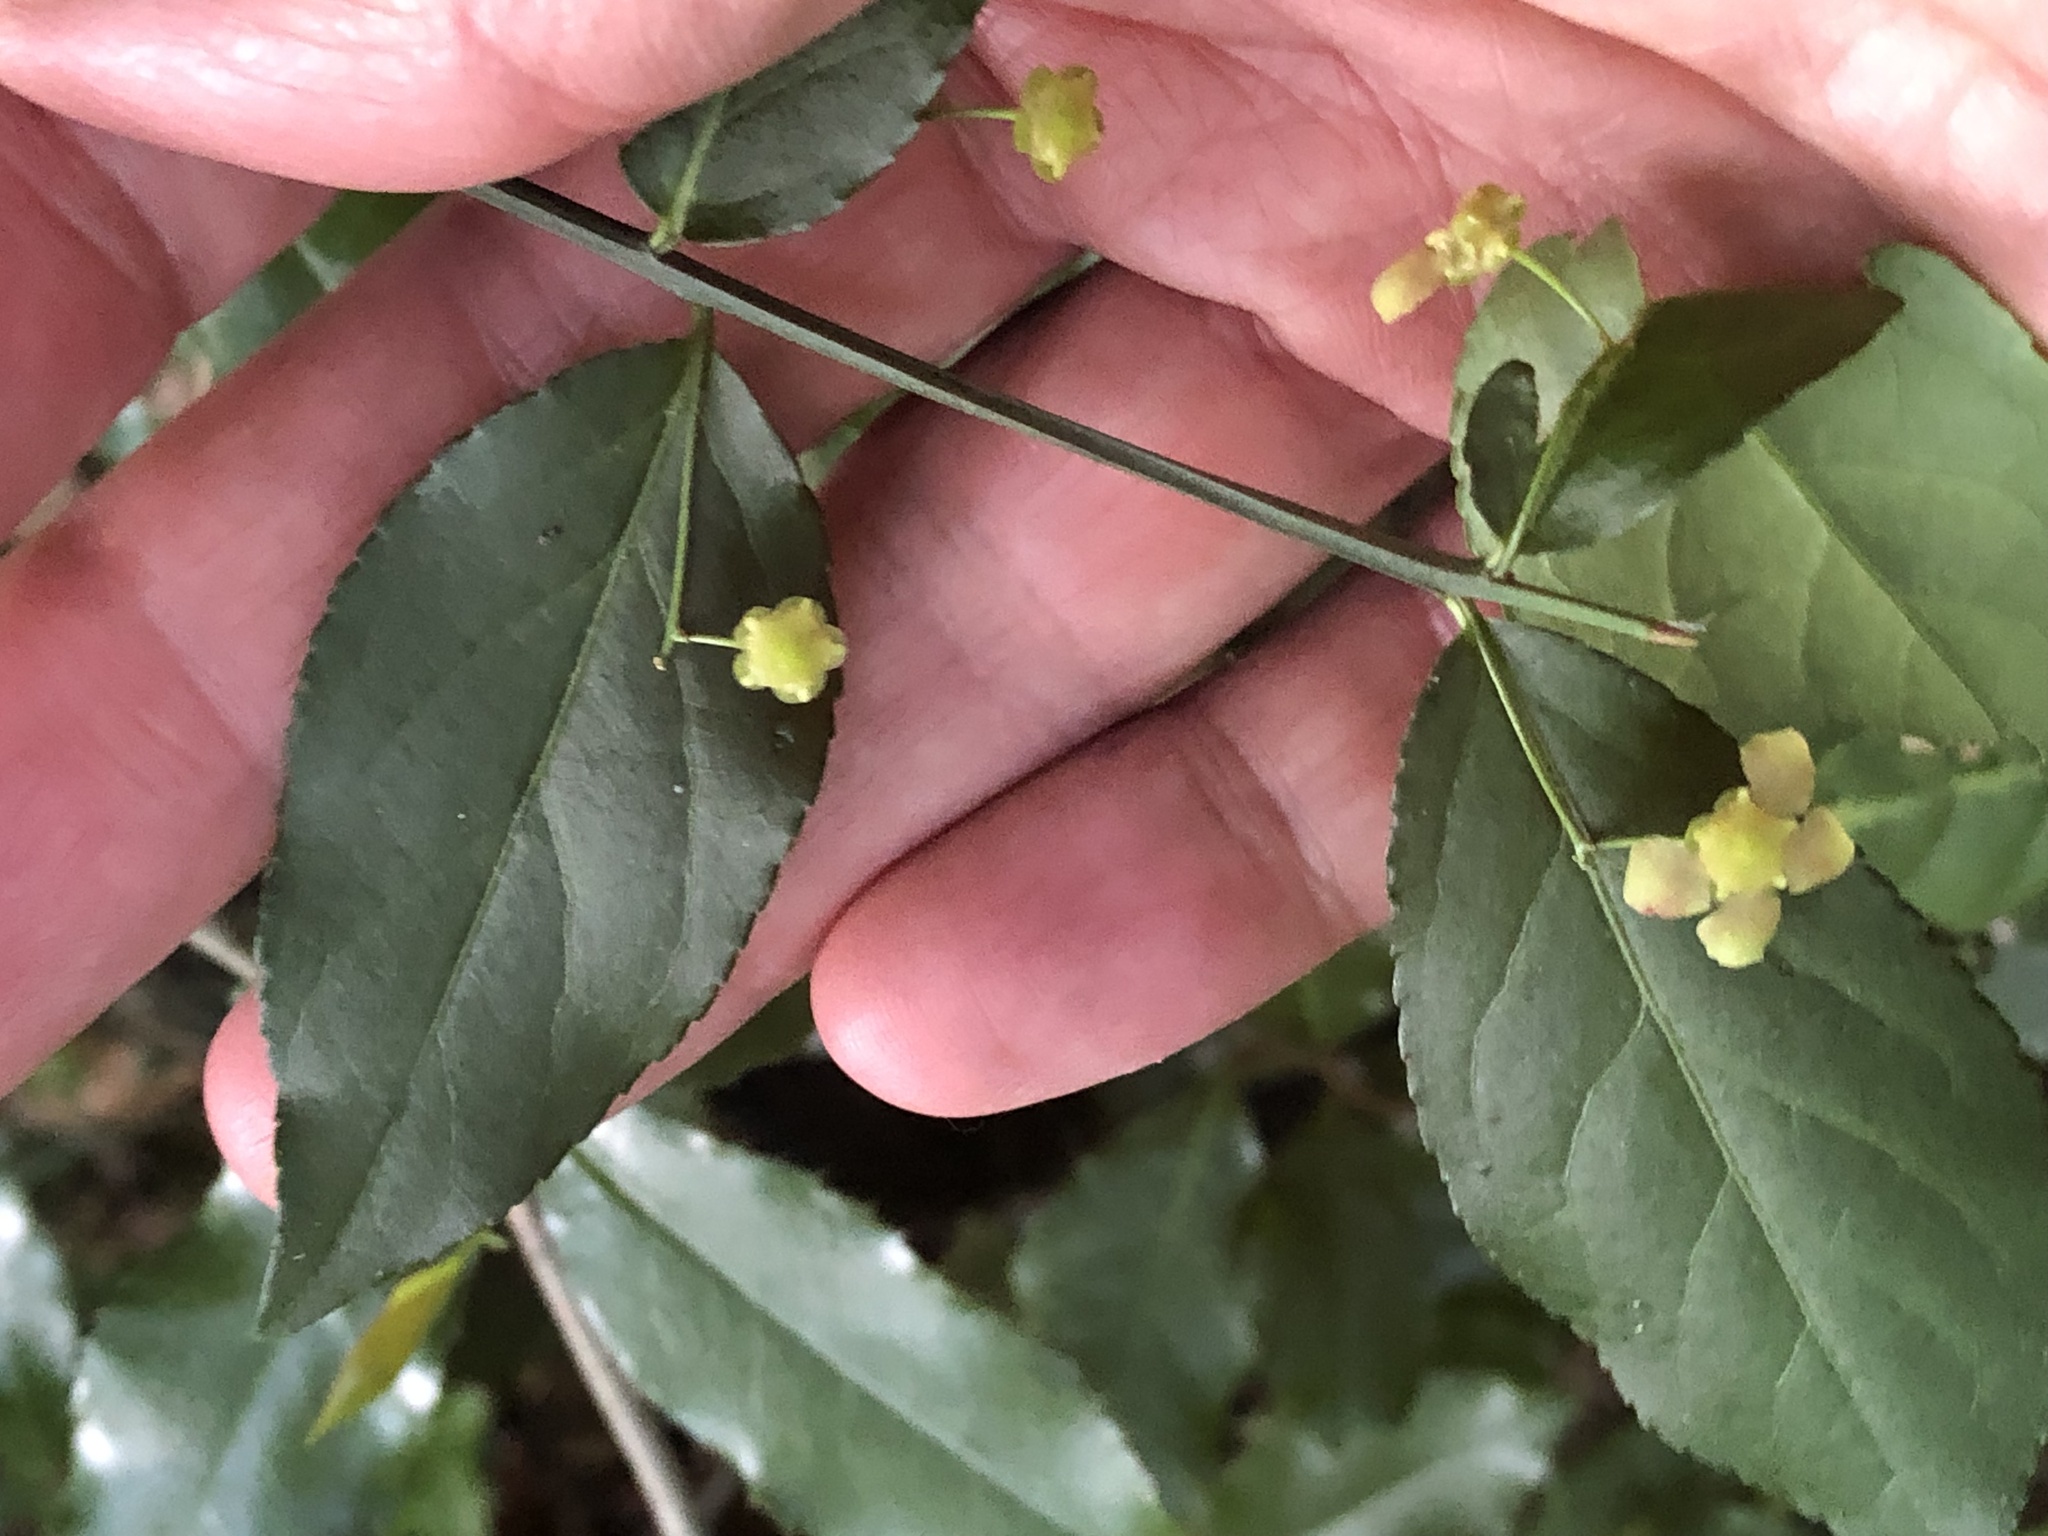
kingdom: Plantae
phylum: Tracheophyta
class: Magnoliopsida
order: Celastrales
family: Celastraceae
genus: Euonymus
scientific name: Euonymus americanus
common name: Bursting-heart
